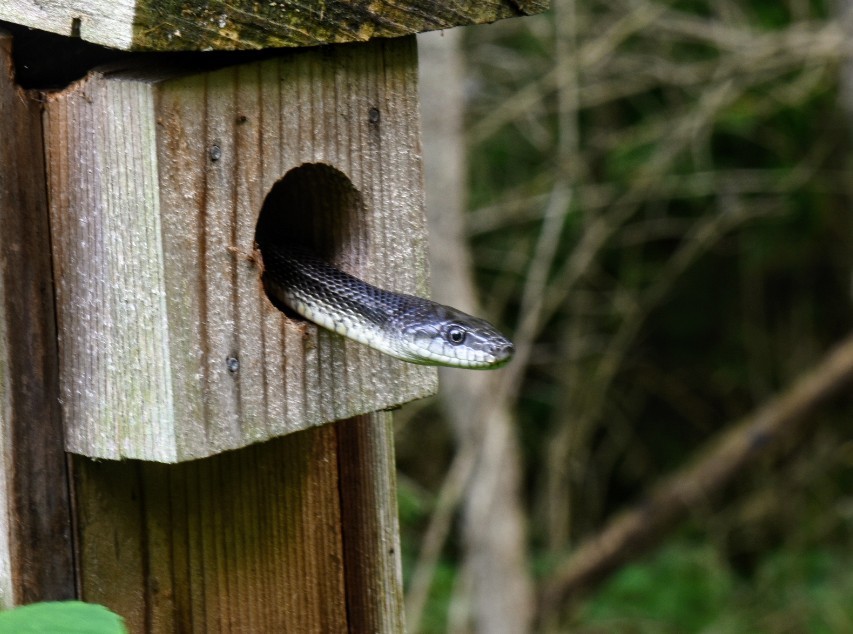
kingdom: Animalia
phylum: Chordata
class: Squamata
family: Colubridae
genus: Pantherophis
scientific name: Pantherophis spiloides
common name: Gray rat snake
